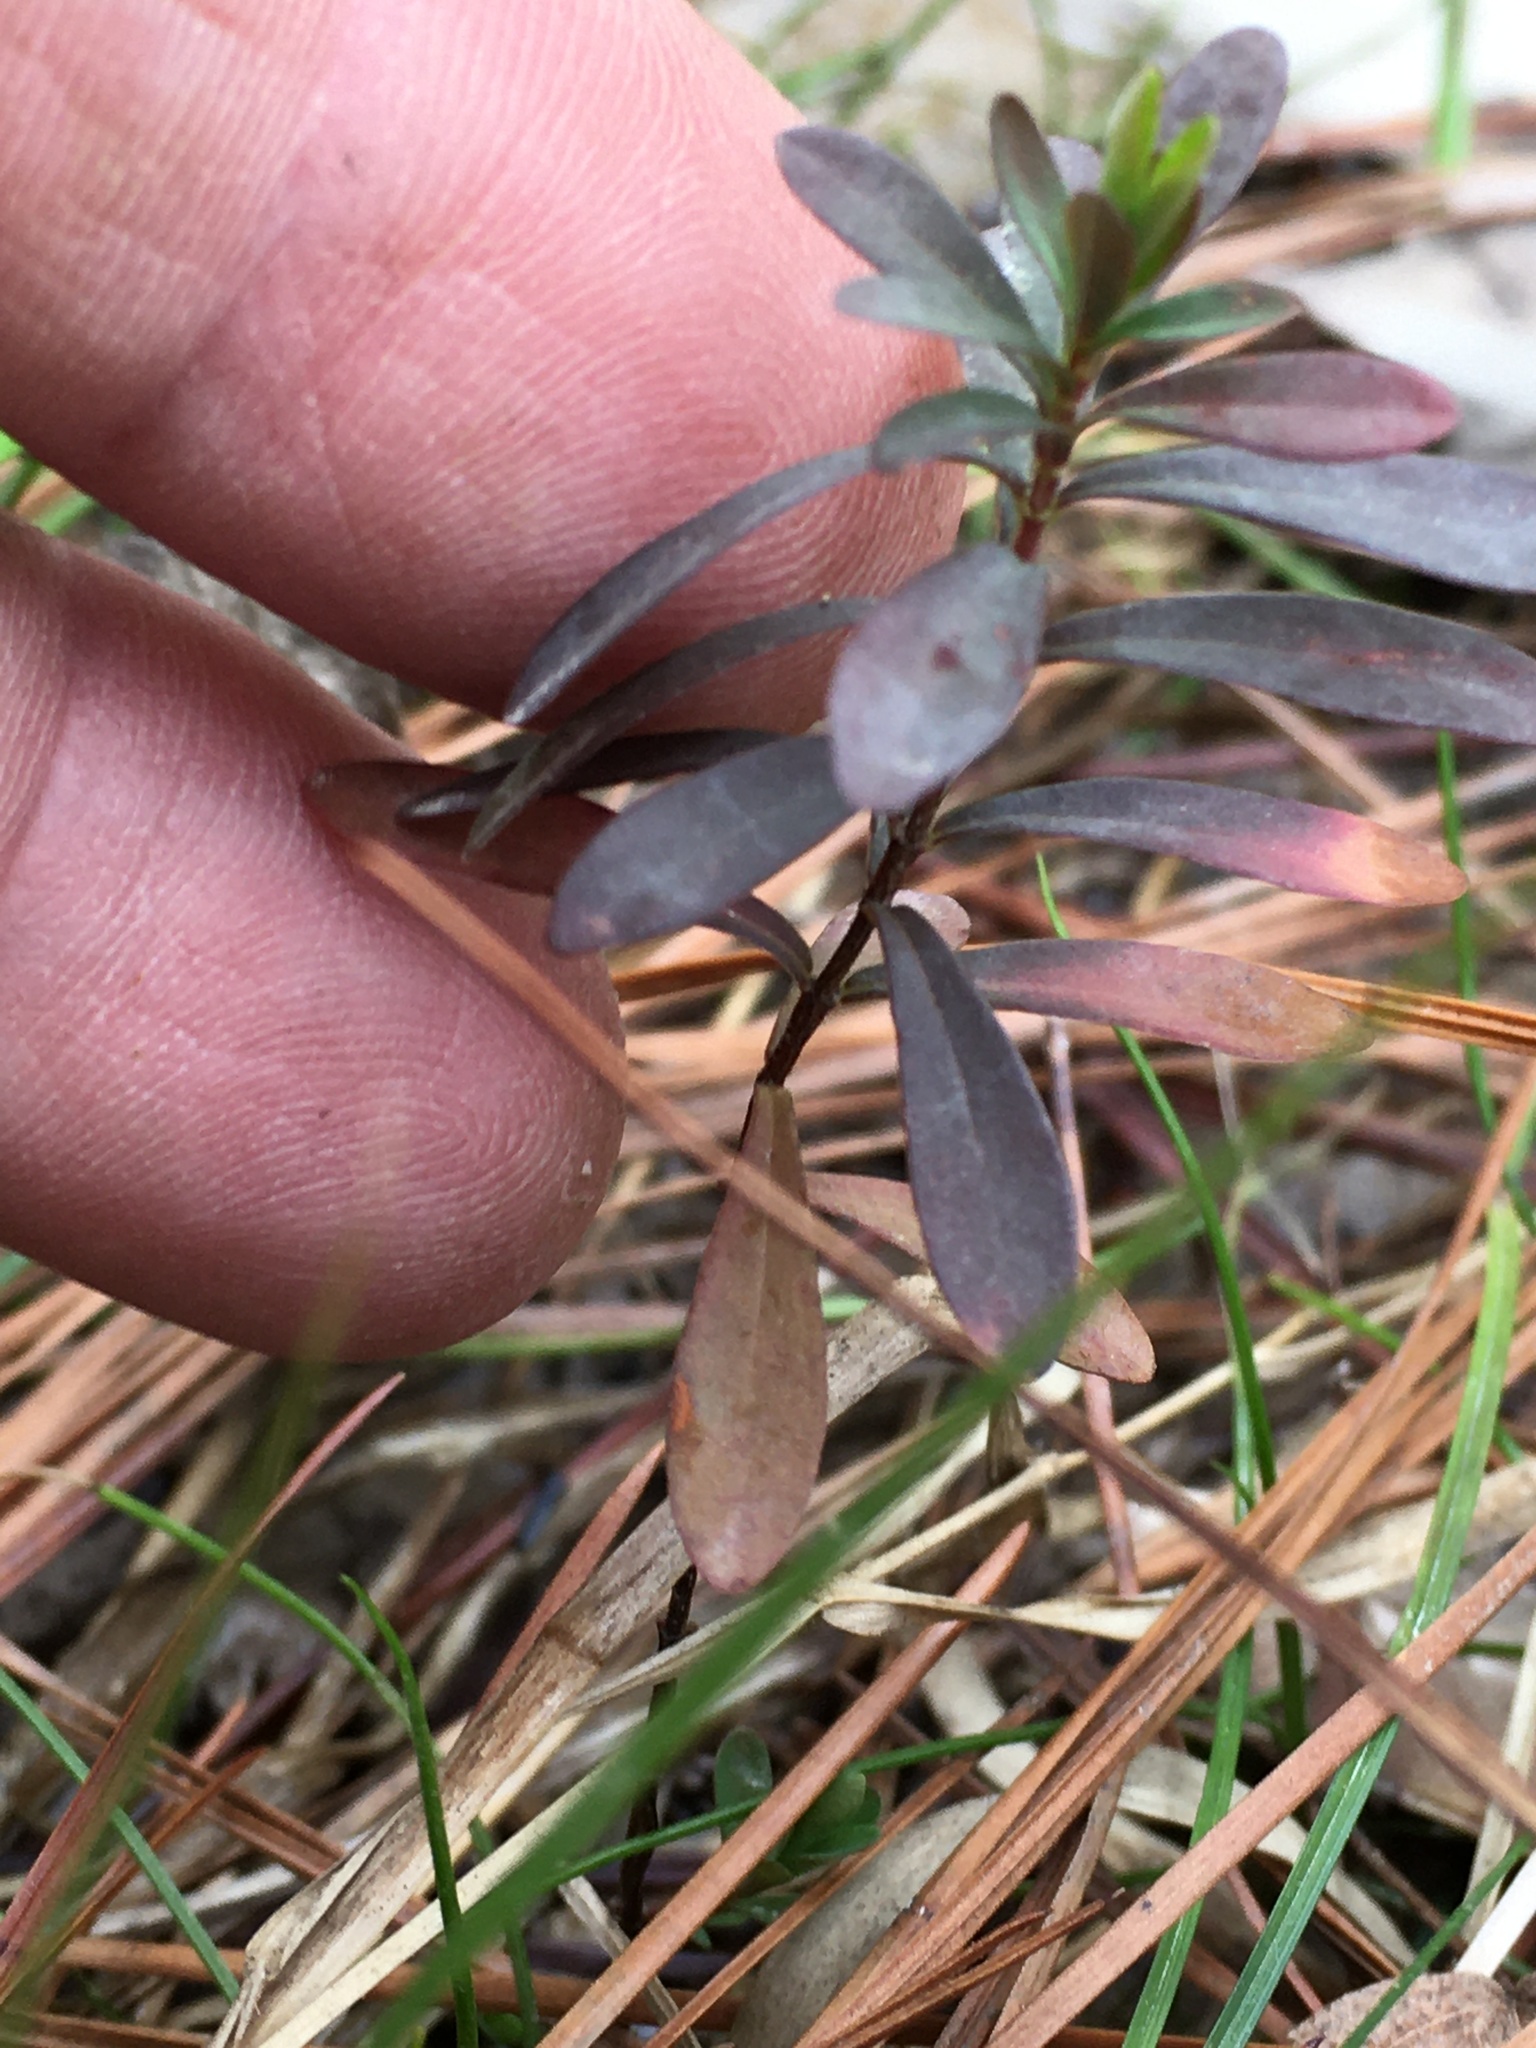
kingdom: Plantae
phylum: Tracheophyta
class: Magnoliopsida
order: Malpighiales
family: Hypericaceae
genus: Hypericum
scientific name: Hypericum hypericoides
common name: St. andrew's cross
